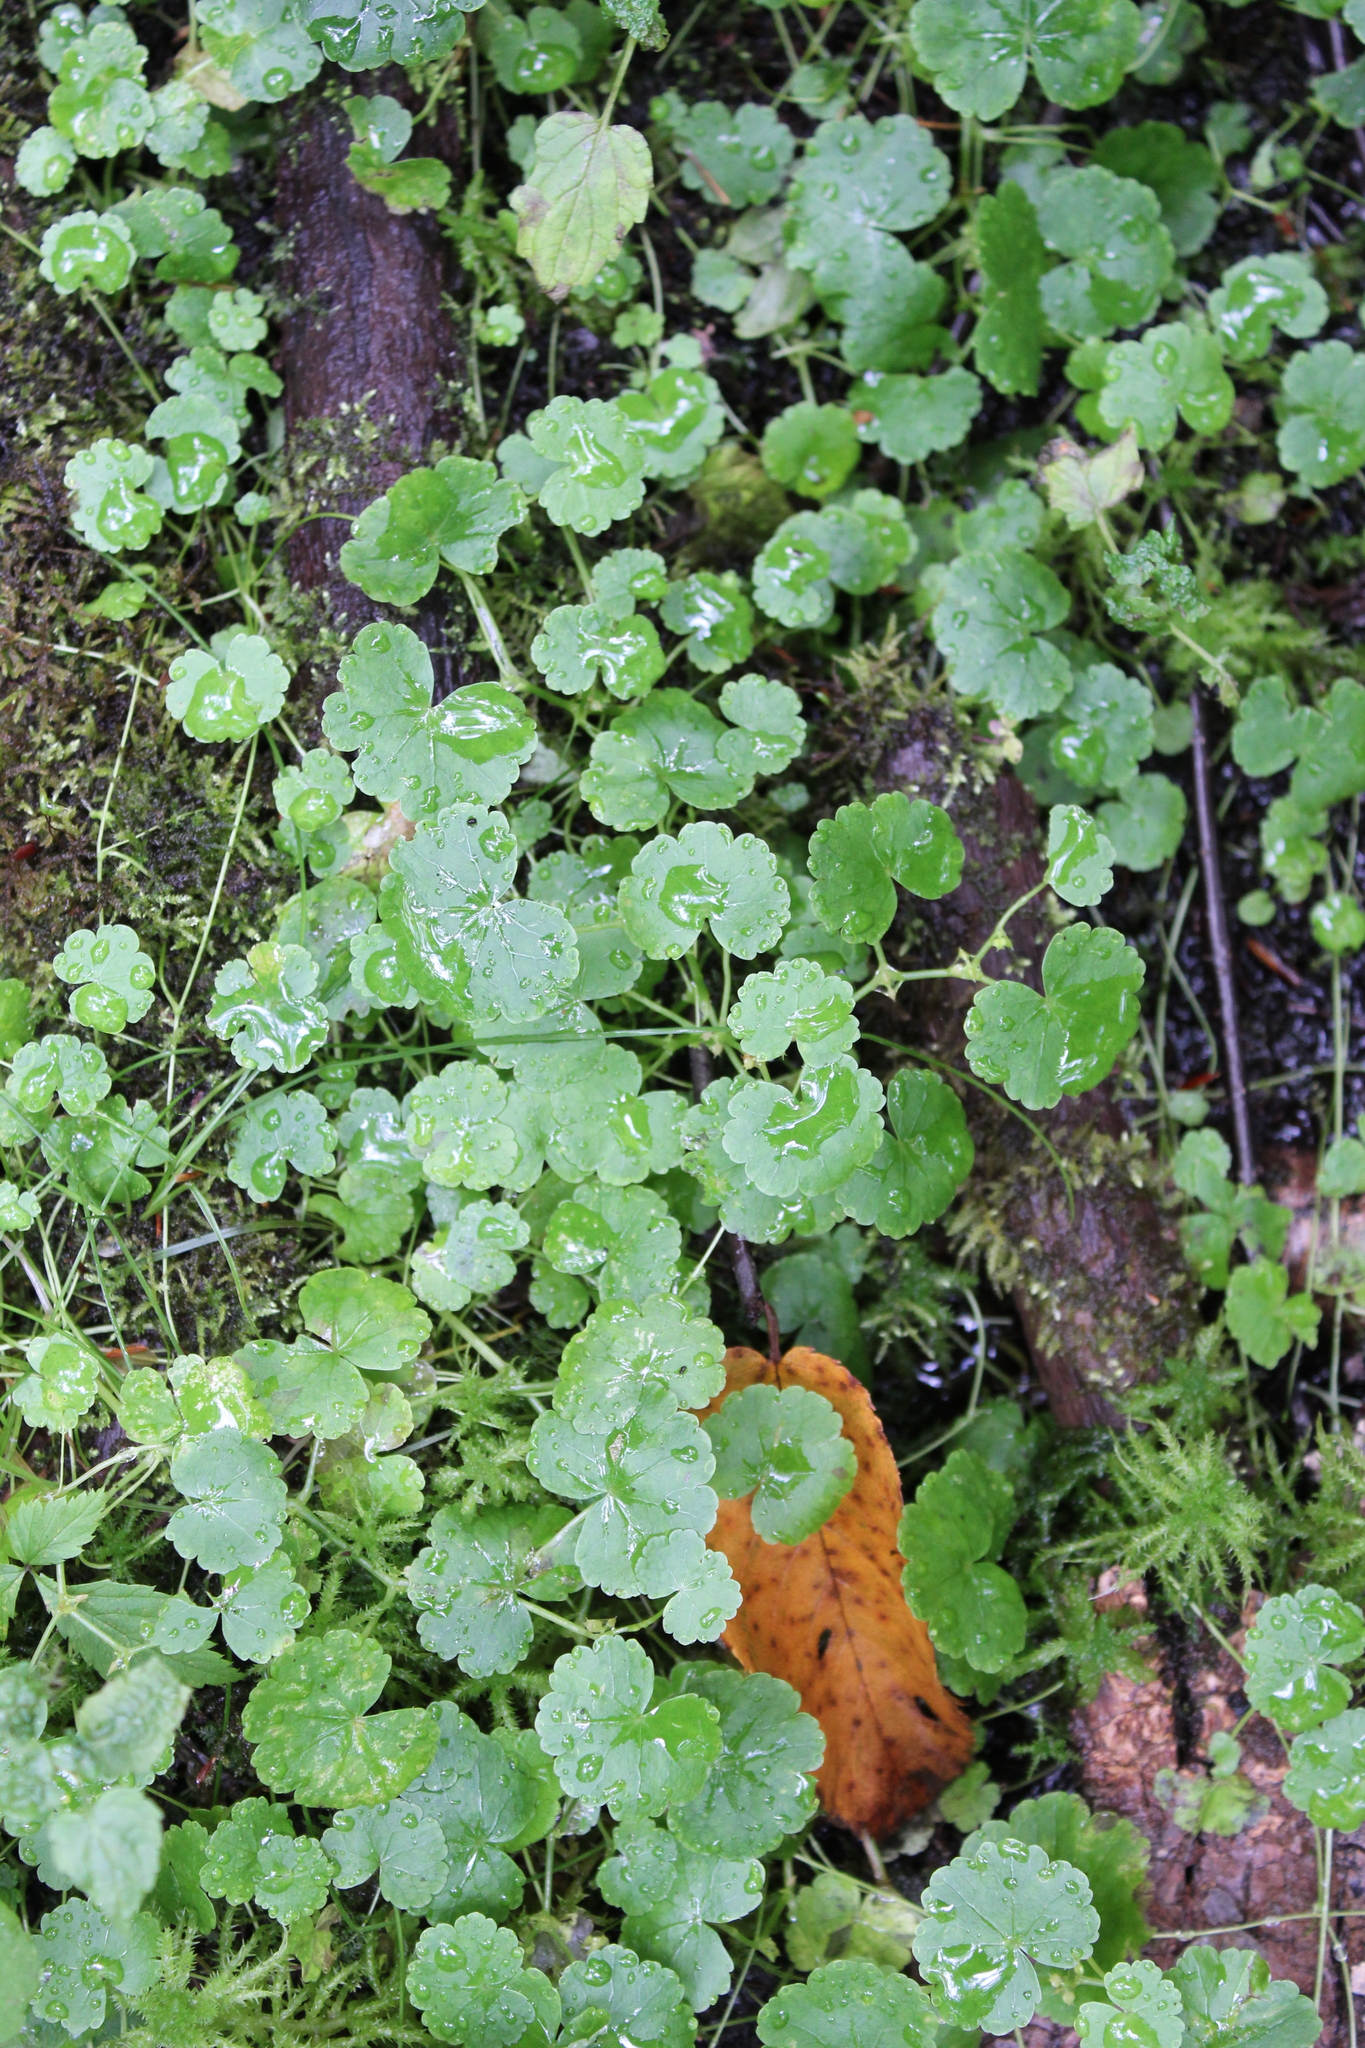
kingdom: Plantae
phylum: Tracheophyta
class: Magnoliopsida
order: Apiales
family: Araliaceae
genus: Hydrocotyle
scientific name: Hydrocotyle americana
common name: American water-pennywort
